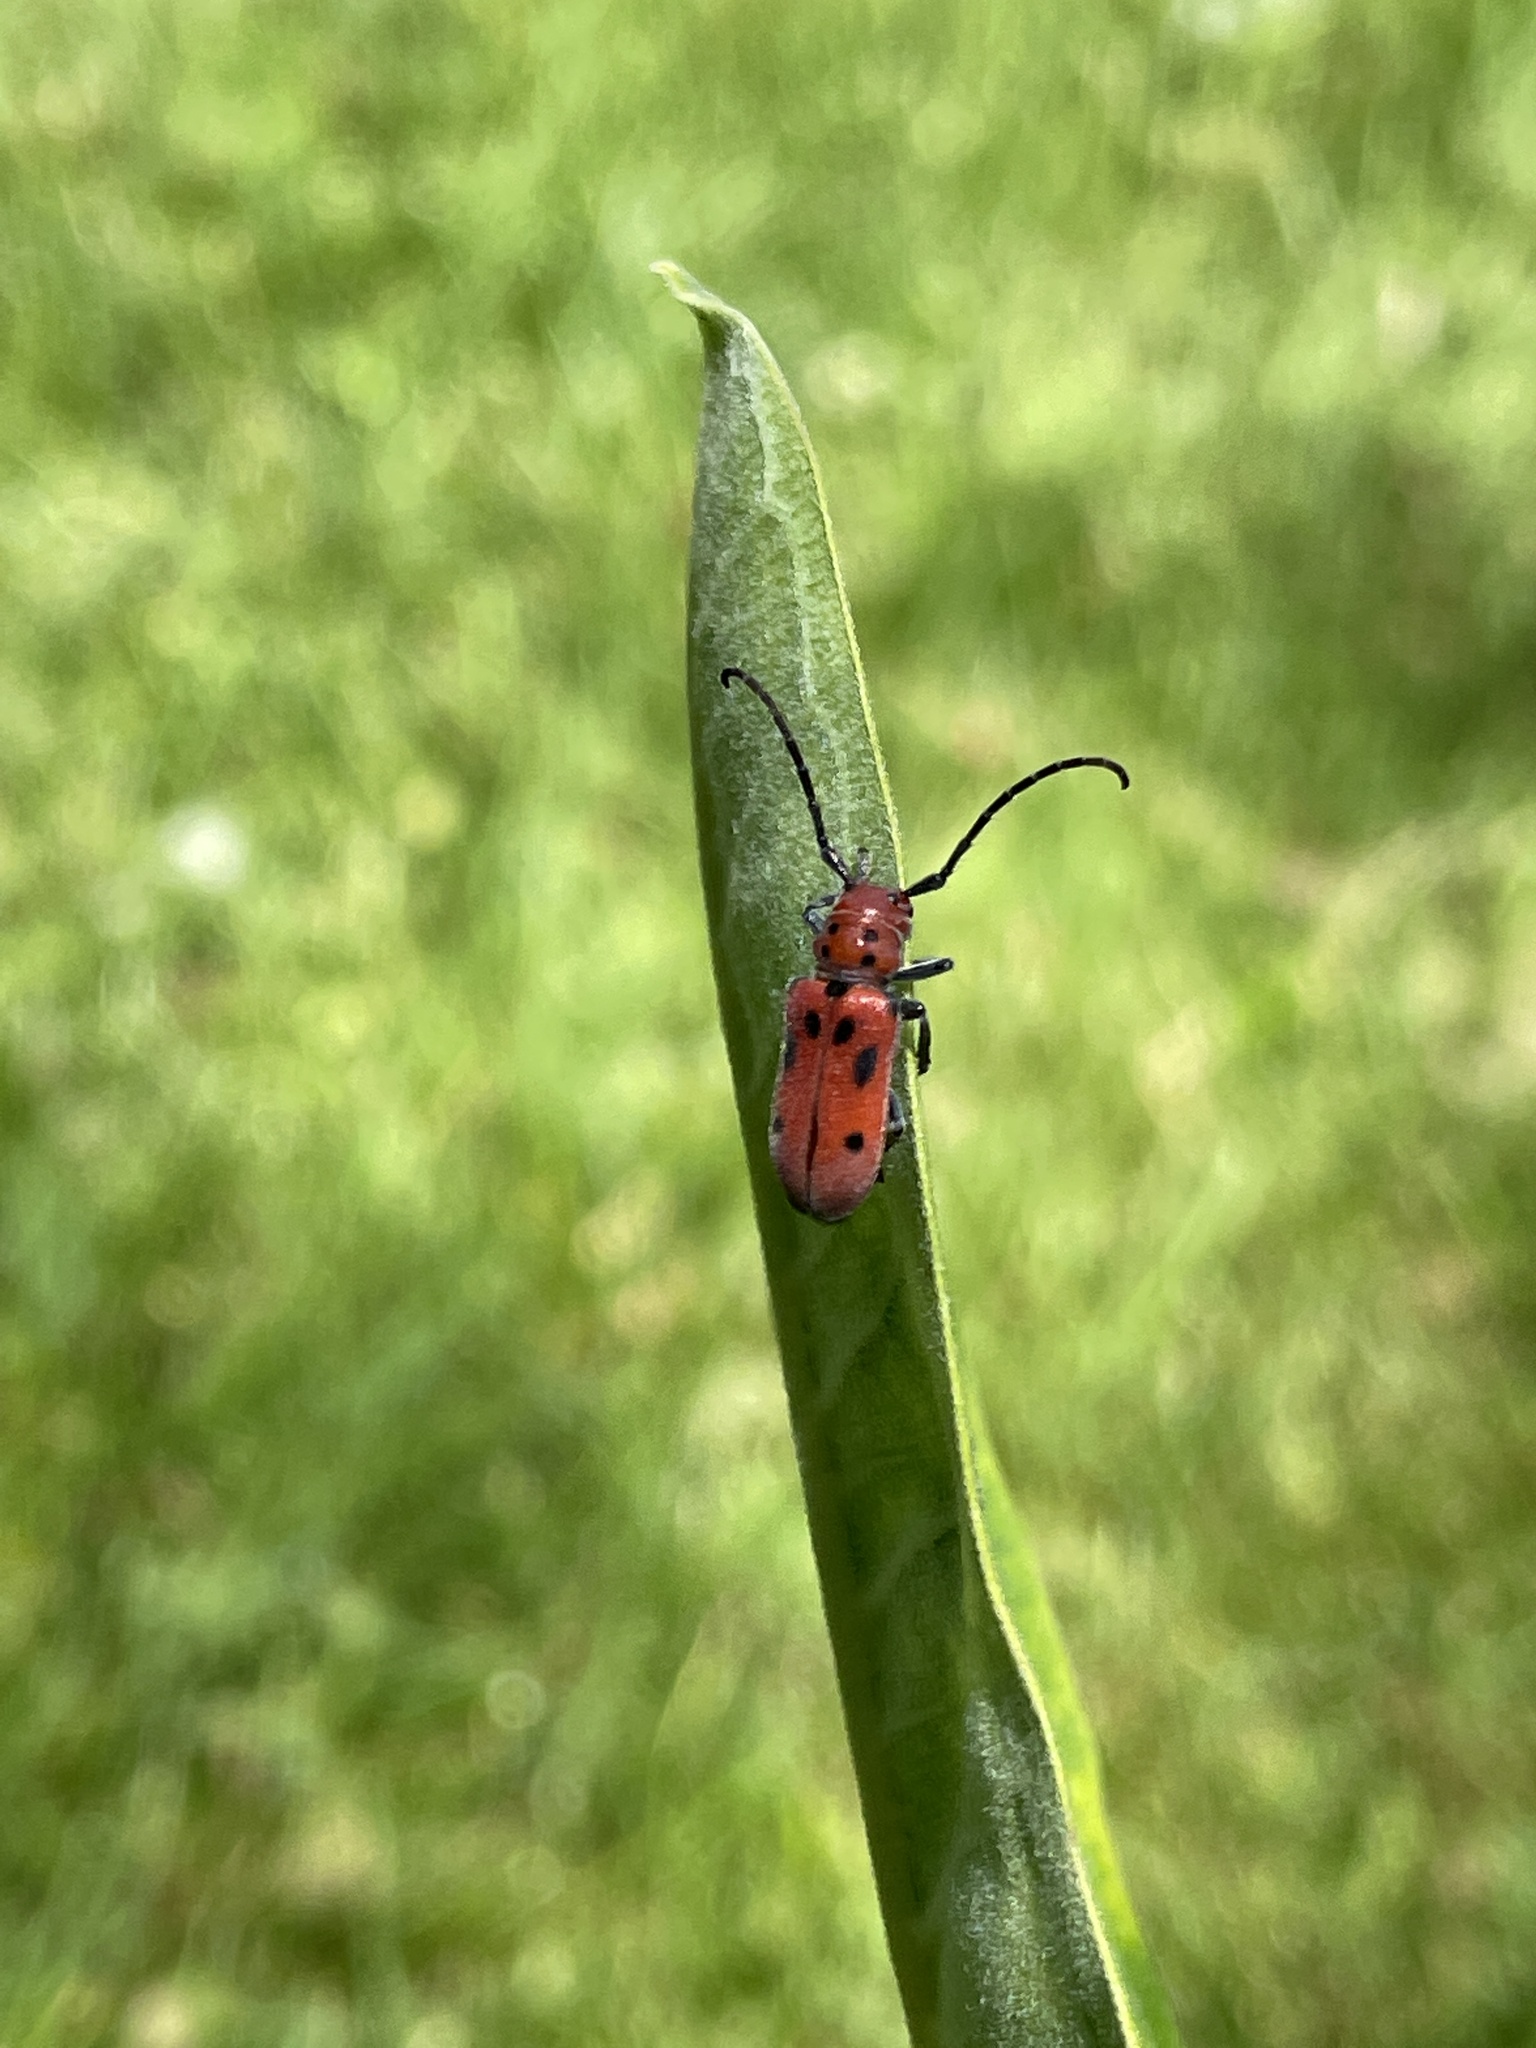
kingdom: Animalia
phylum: Arthropoda
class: Insecta
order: Coleoptera
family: Cerambycidae
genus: Tetraopes
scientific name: Tetraopes tetrophthalmus
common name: Red milkweed beetle
